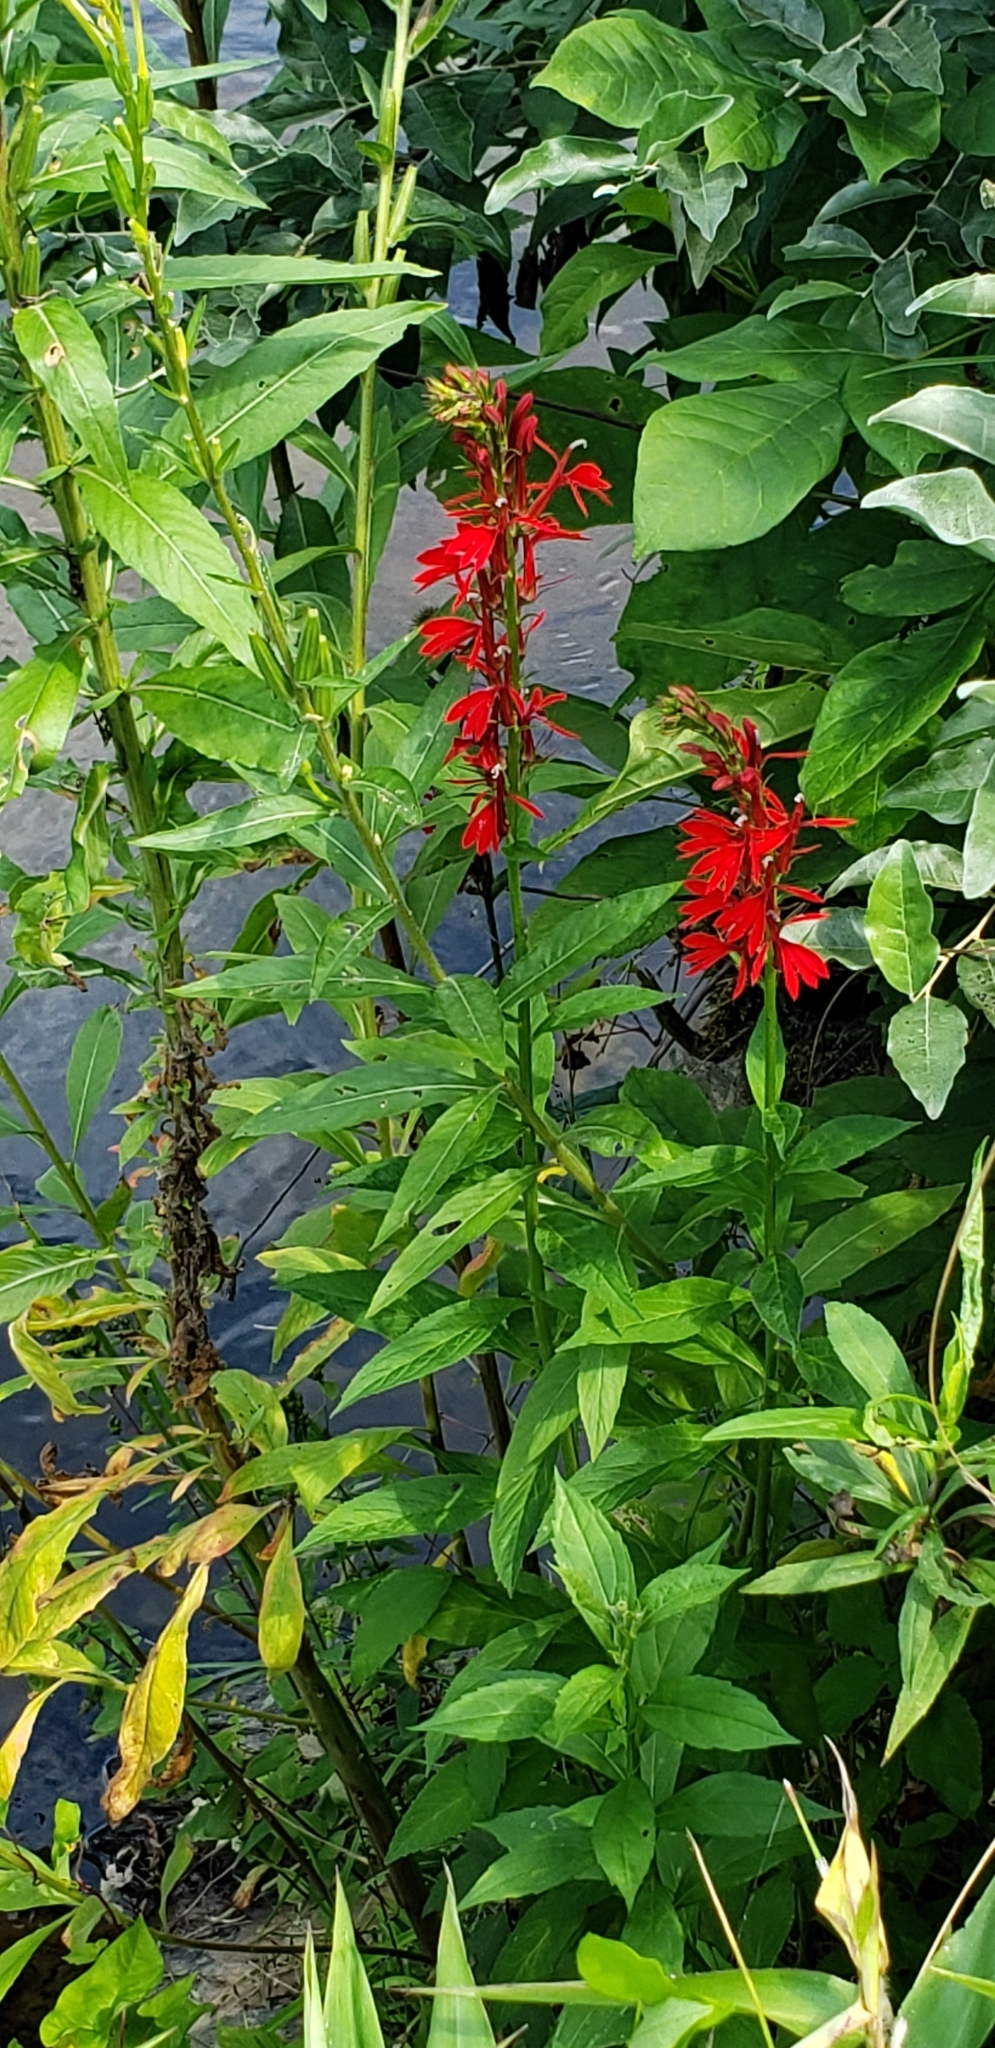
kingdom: Plantae
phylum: Tracheophyta
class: Magnoliopsida
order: Asterales
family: Campanulaceae
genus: Lobelia
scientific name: Lobelia cardinalis
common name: Cardinal flower
